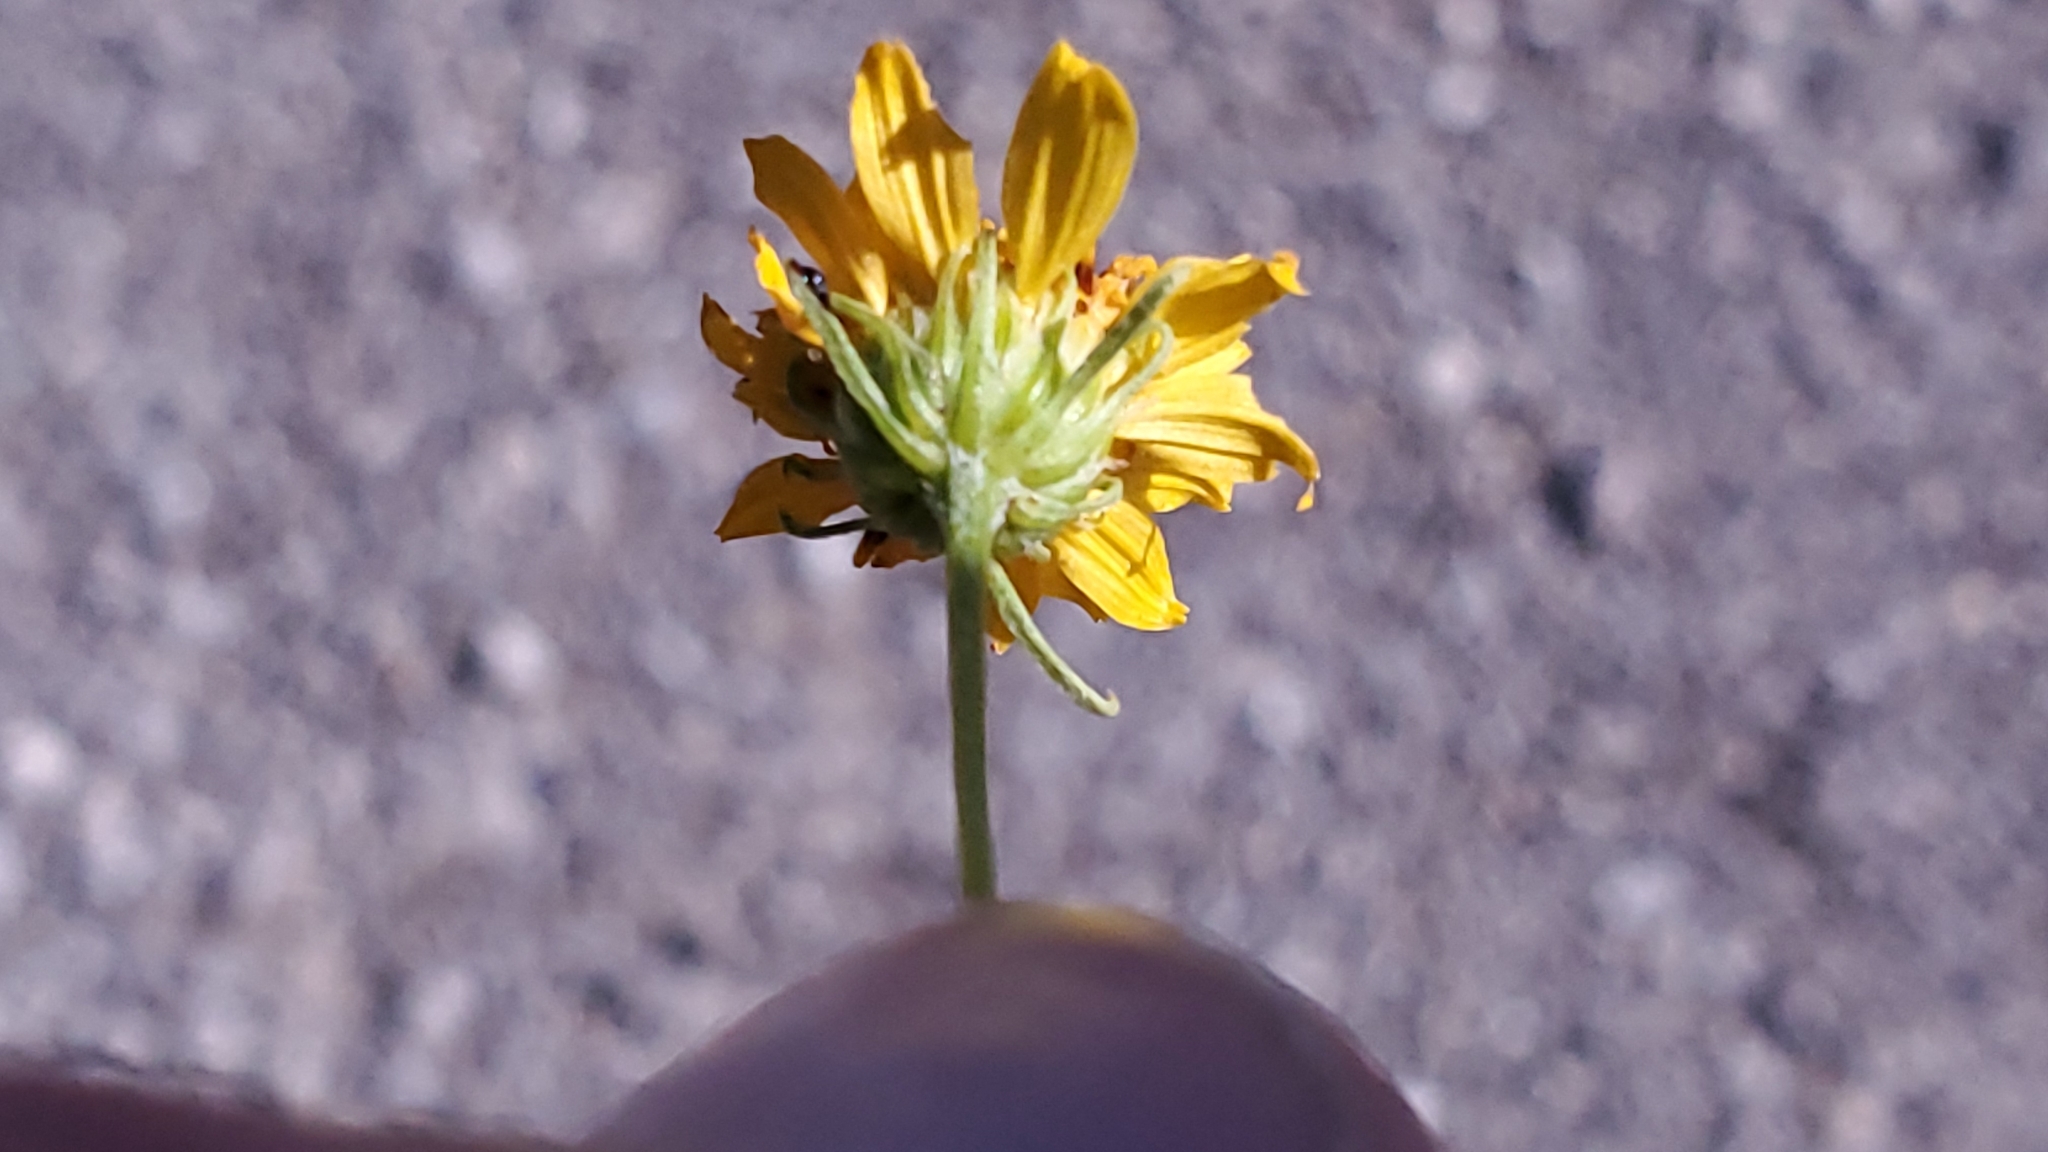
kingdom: Plantae
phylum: Tracheophyta
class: Magnoliopsida
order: Asterales
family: Asteraceae
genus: Sidneya
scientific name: Sidneya tenuifolia
